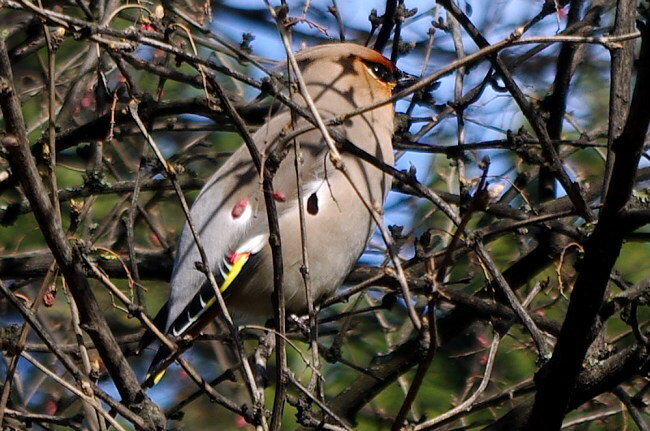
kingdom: Animalia
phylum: Chordata
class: Aves
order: Passeriformes
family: Bombycillidae
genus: Bombycilla
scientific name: Bombycilla garrulus
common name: Bohemian waxwing
